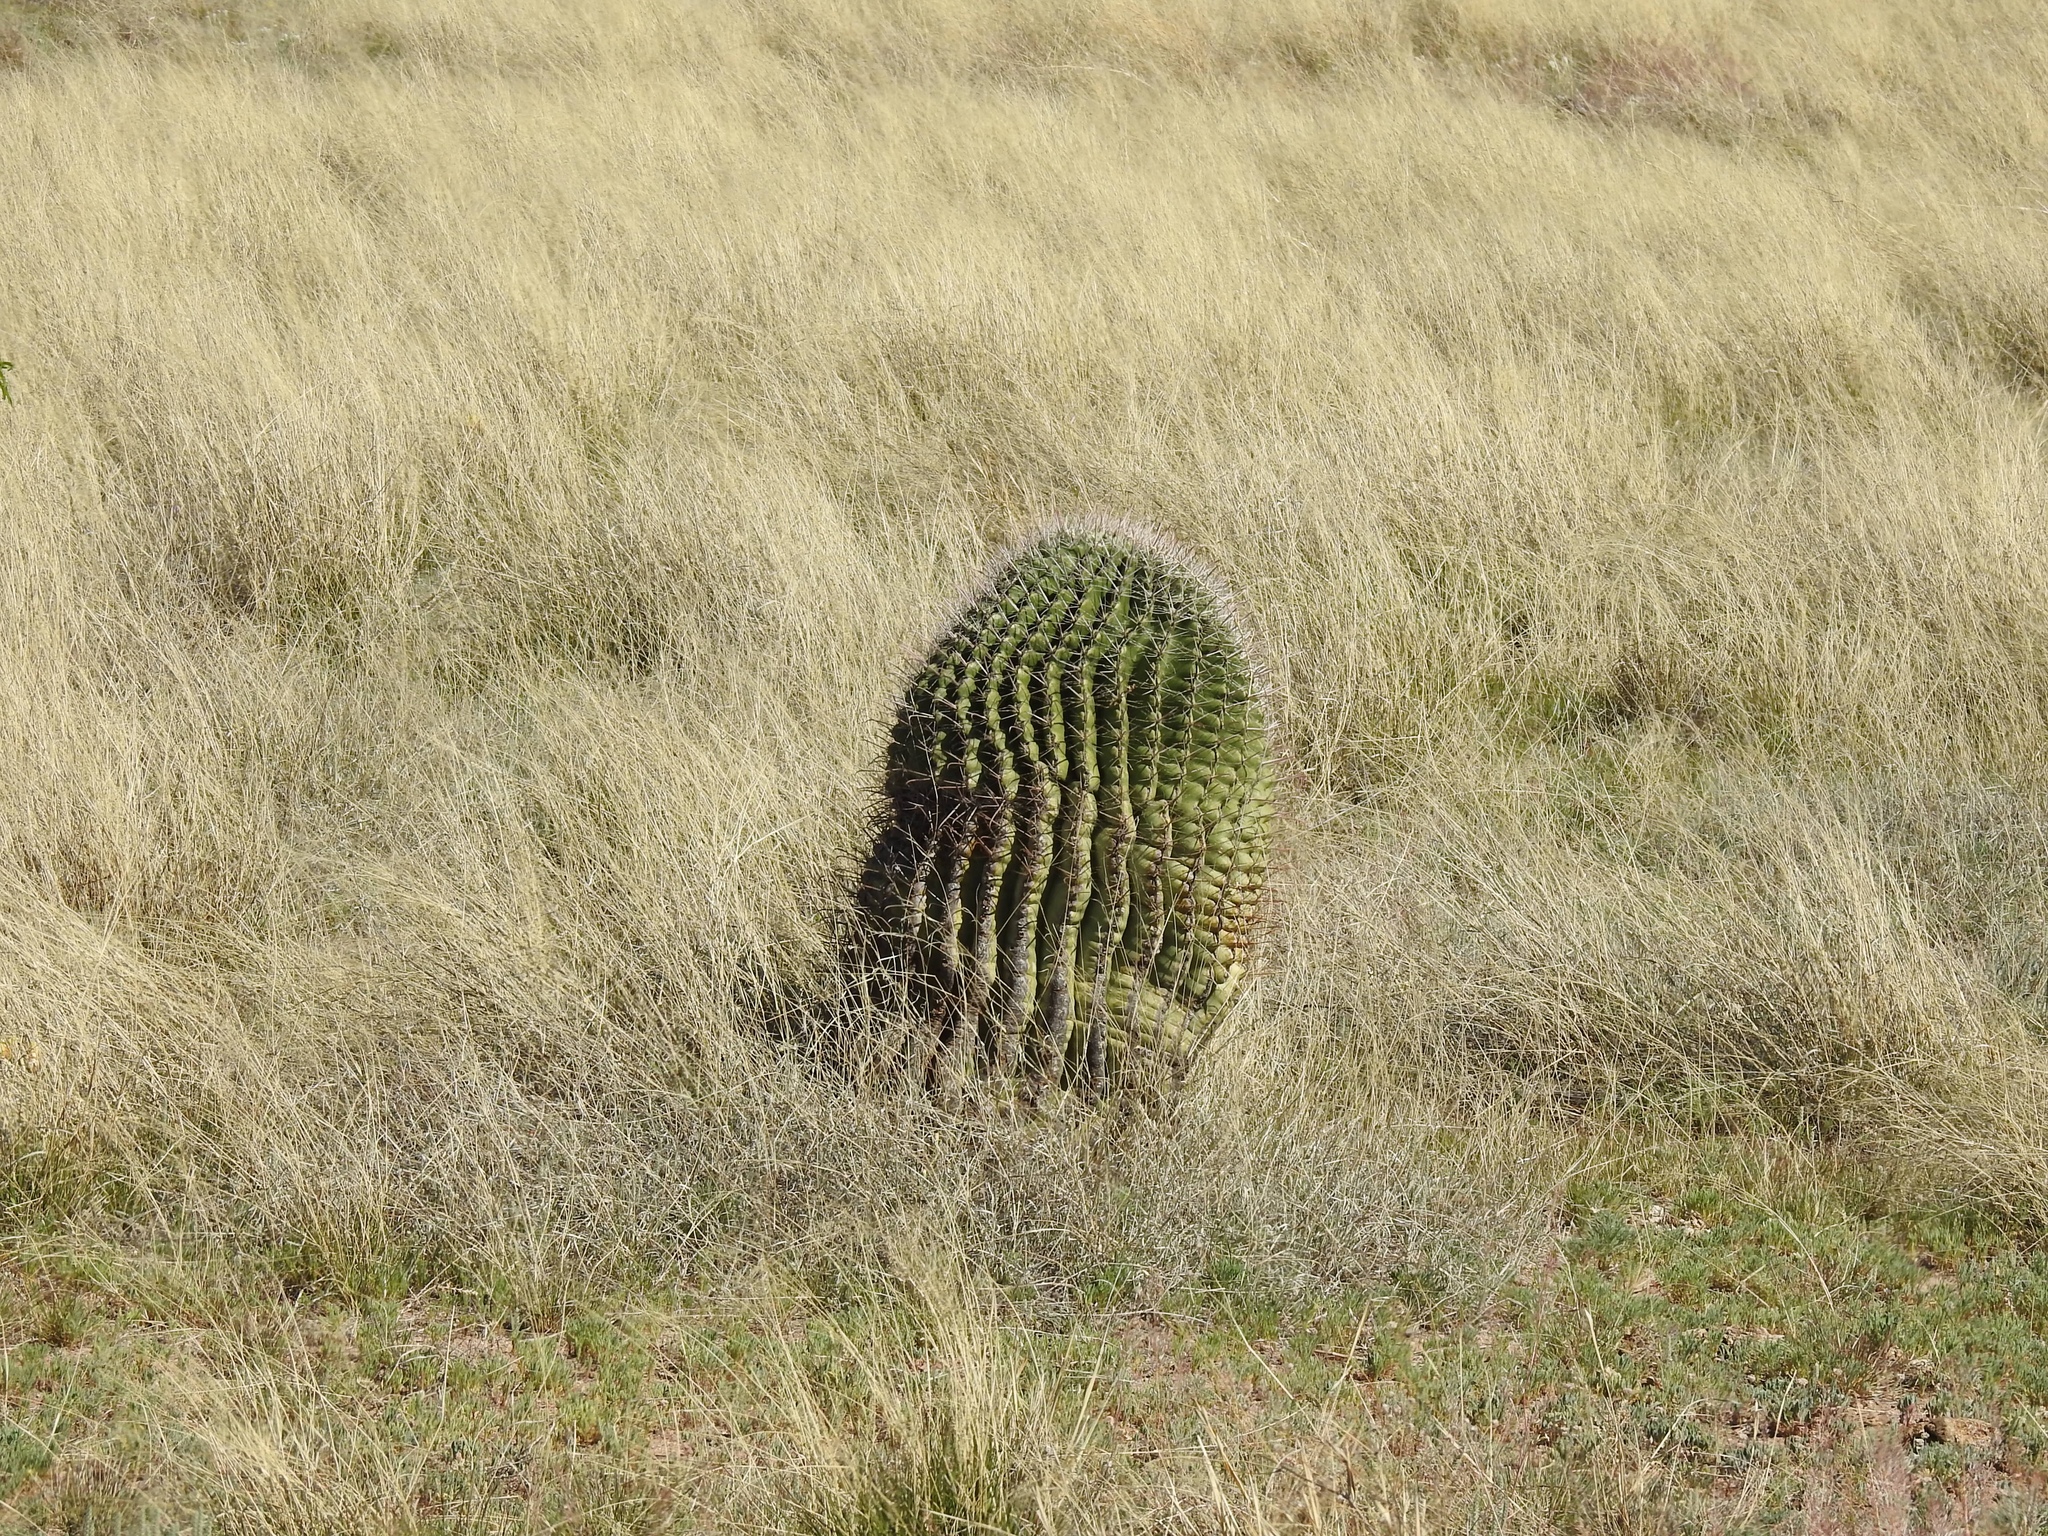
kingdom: Plantae
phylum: Tracheophyta
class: Magnoliopsida
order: Caryophyllales
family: Cactaceae
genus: Ferocactus
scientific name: Ferocactus wislizeni
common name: Candy barrel cactus
